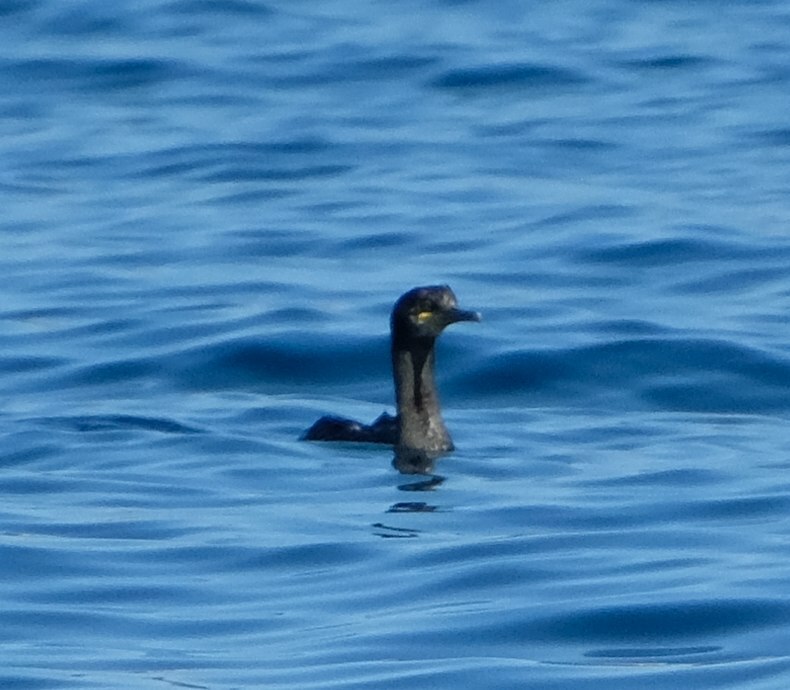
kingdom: Animalia
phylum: Chordata
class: Aves
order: Suliformes
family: Phalacrocoracidae
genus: Phalacrocorax
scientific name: Phalacrocorax aristotelis
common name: European shag
